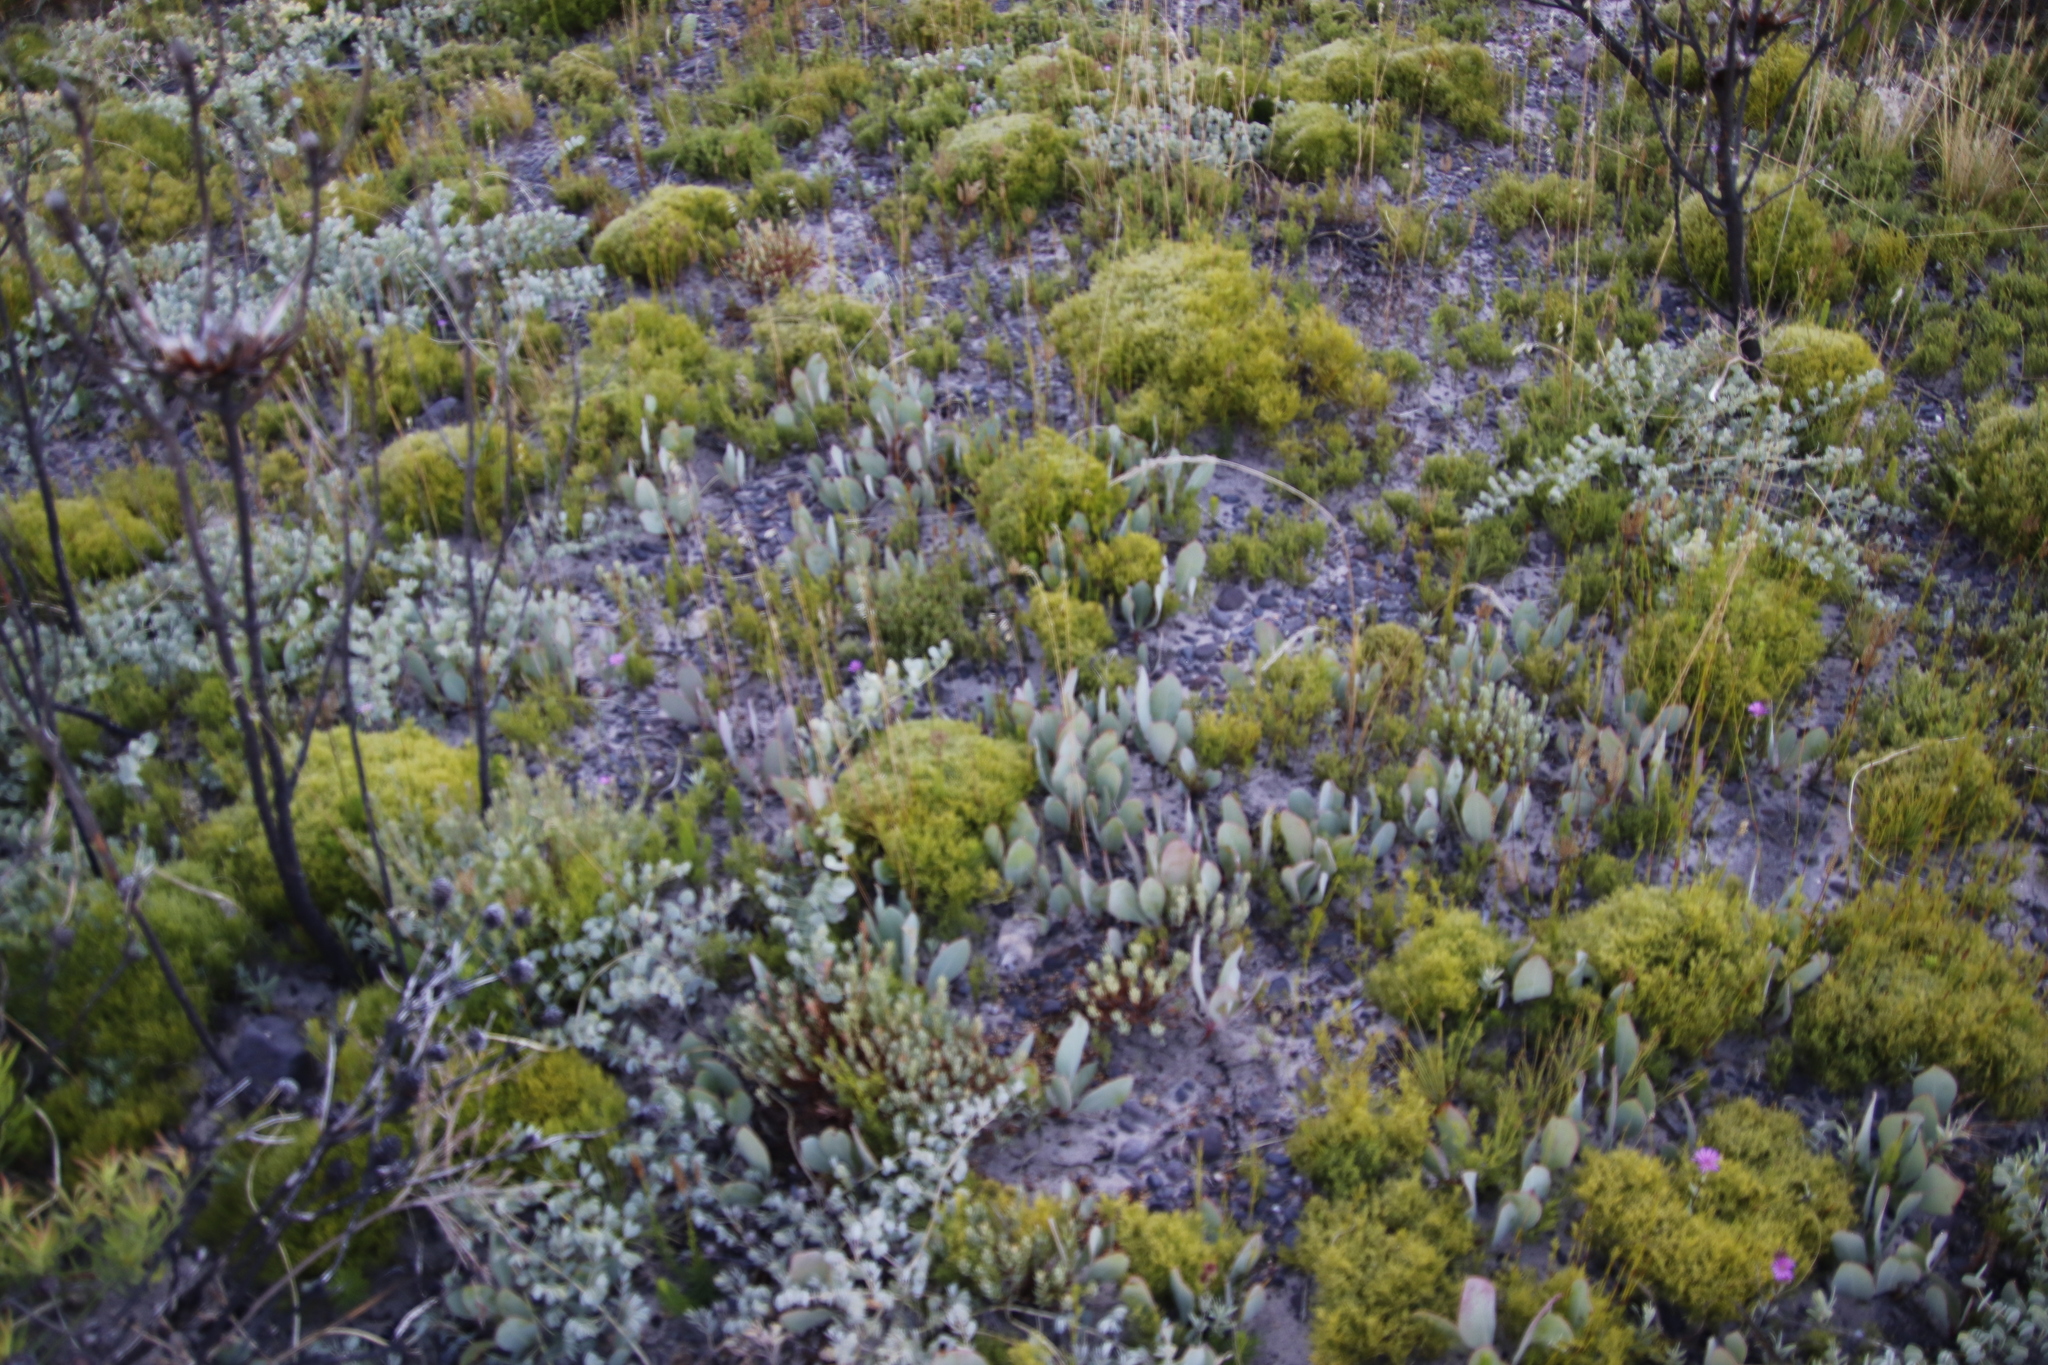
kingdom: Plantae
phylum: Tracheophyta
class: Magnoliopsida
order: Proteales
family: Proteaceae
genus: Protea
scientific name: Protea acaulos
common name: Common ground sugarbush
